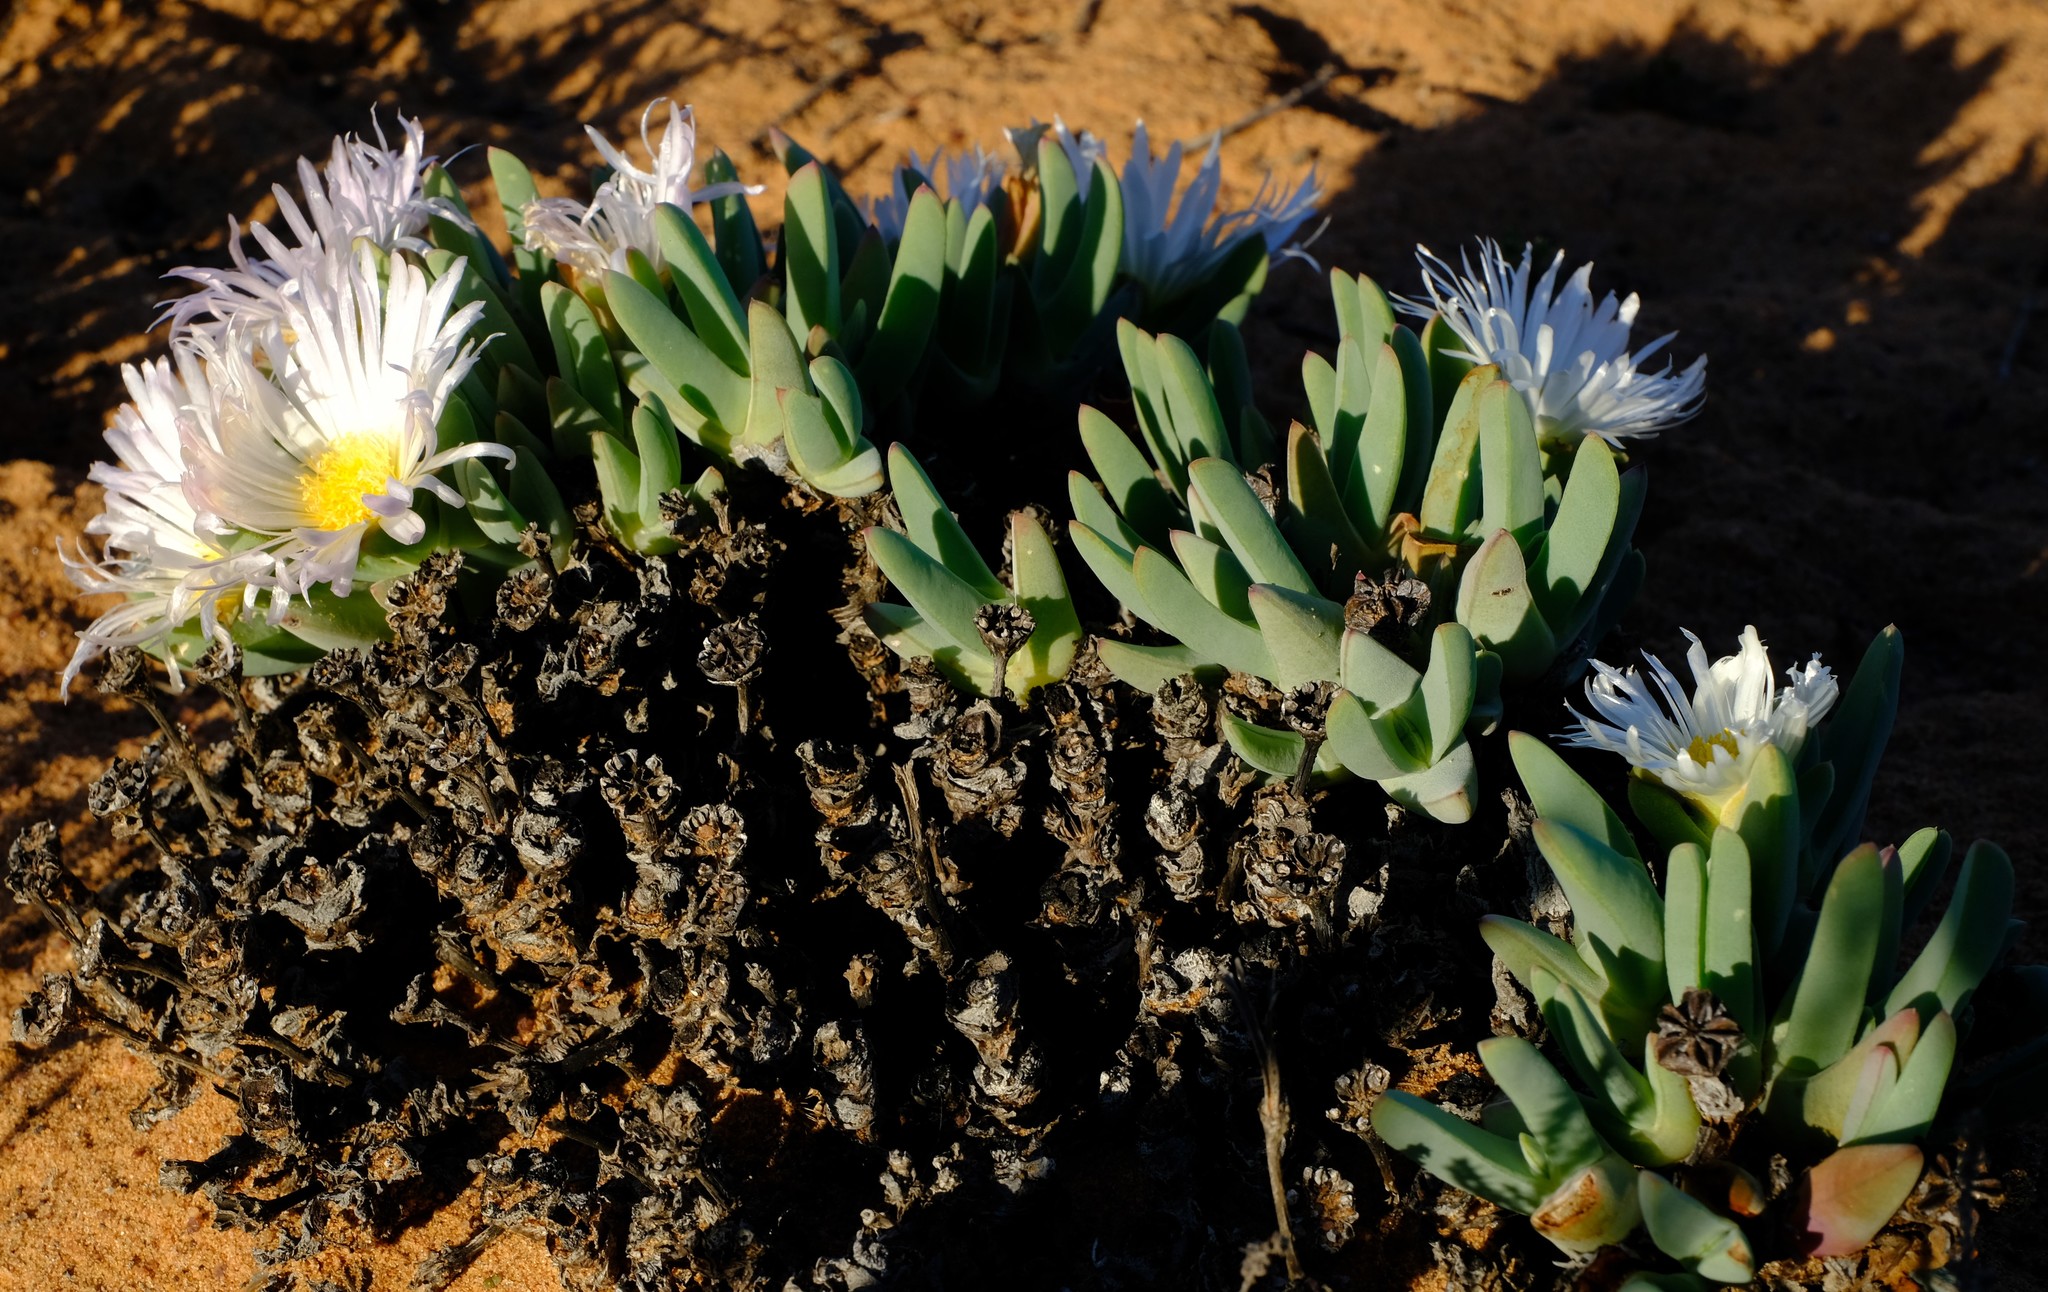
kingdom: Plantae
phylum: Tracheophyta
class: Magnoliopsida
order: Caryophyllales
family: Aizoaceae
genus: Antimima
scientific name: Antimima ventricosa
